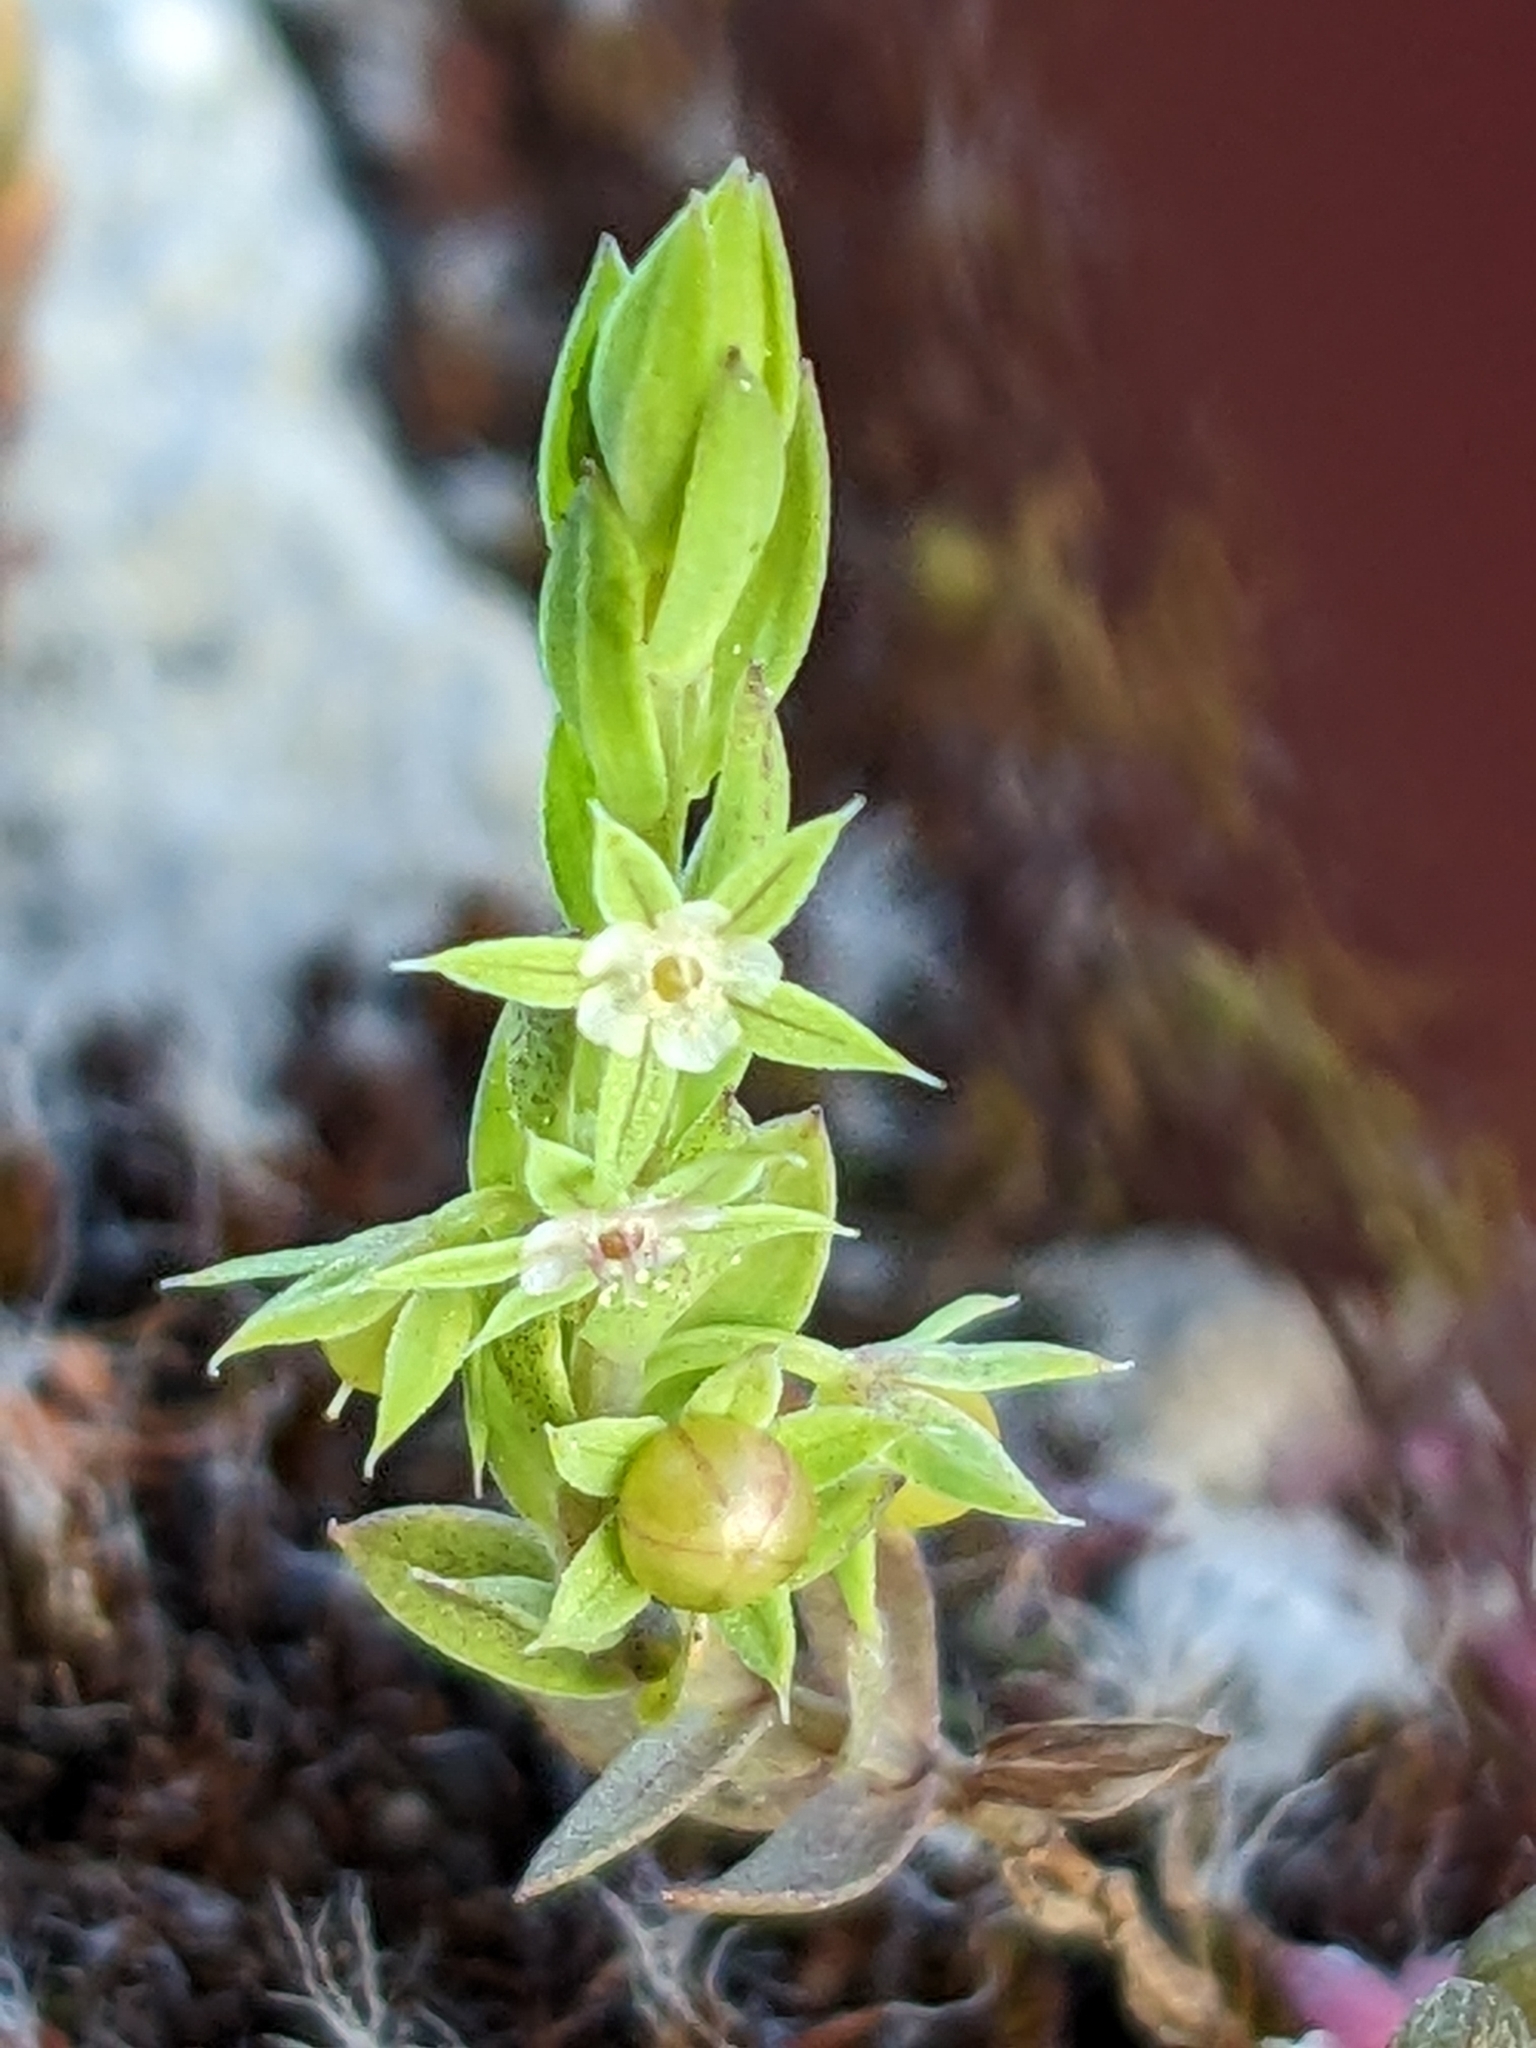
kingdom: Plantae
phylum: Tracheophyta
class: Magnoliopsida
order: Ericales
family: Primulaceae
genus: Lysimachia
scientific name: Lysimachia linum-stellatum
